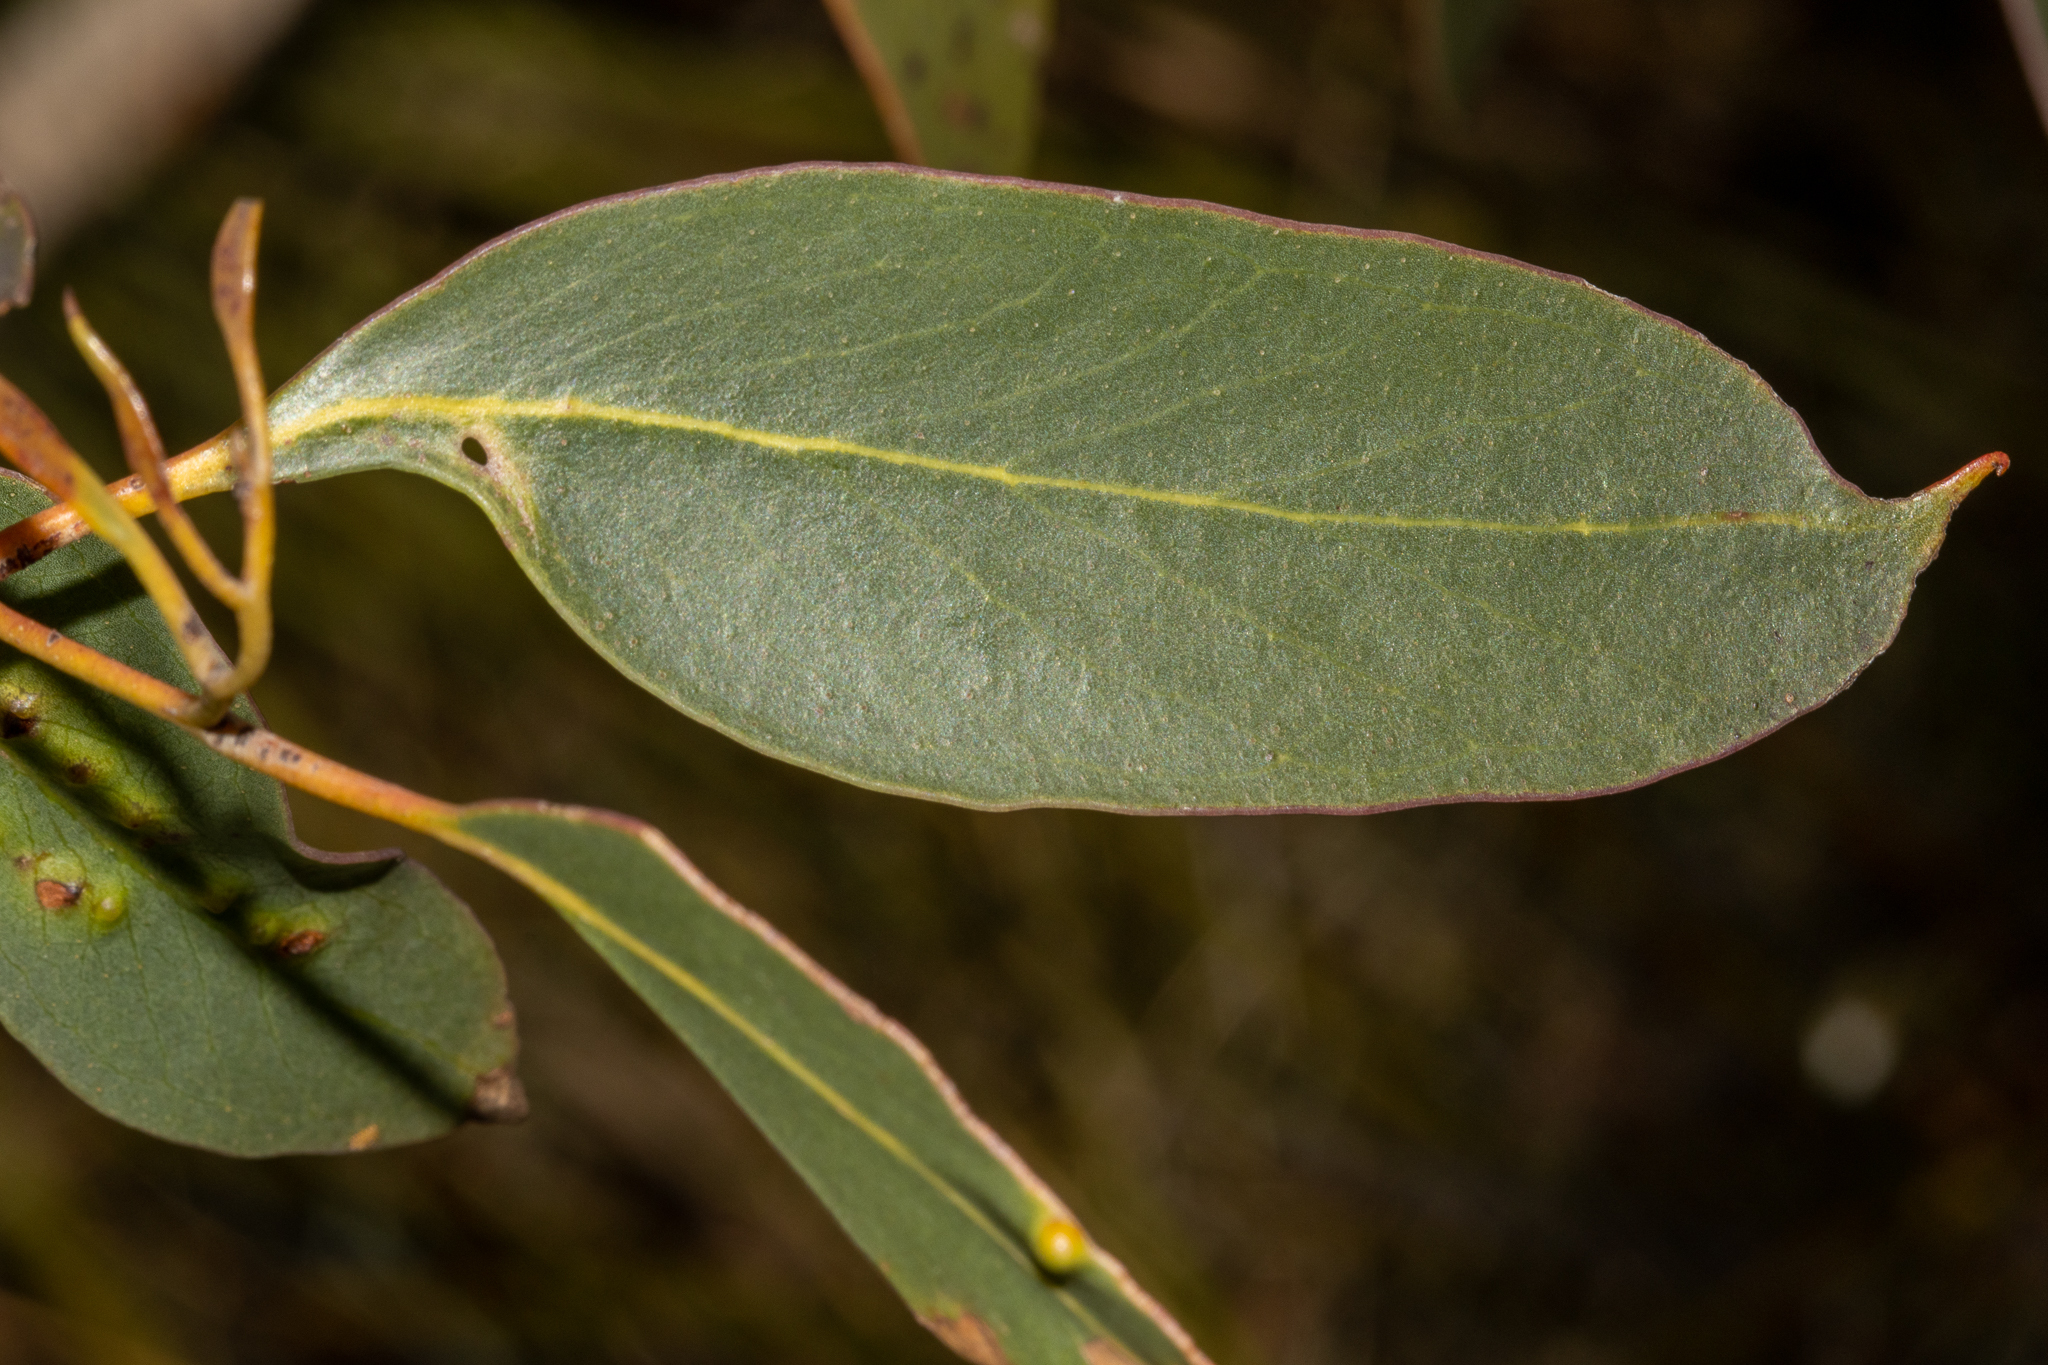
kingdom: Plantae
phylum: Tracheophyta
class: Magnoliopsida
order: Myrtales
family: Myrtaceae
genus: Eucalyptus
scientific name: Eucalyptus baxteri
